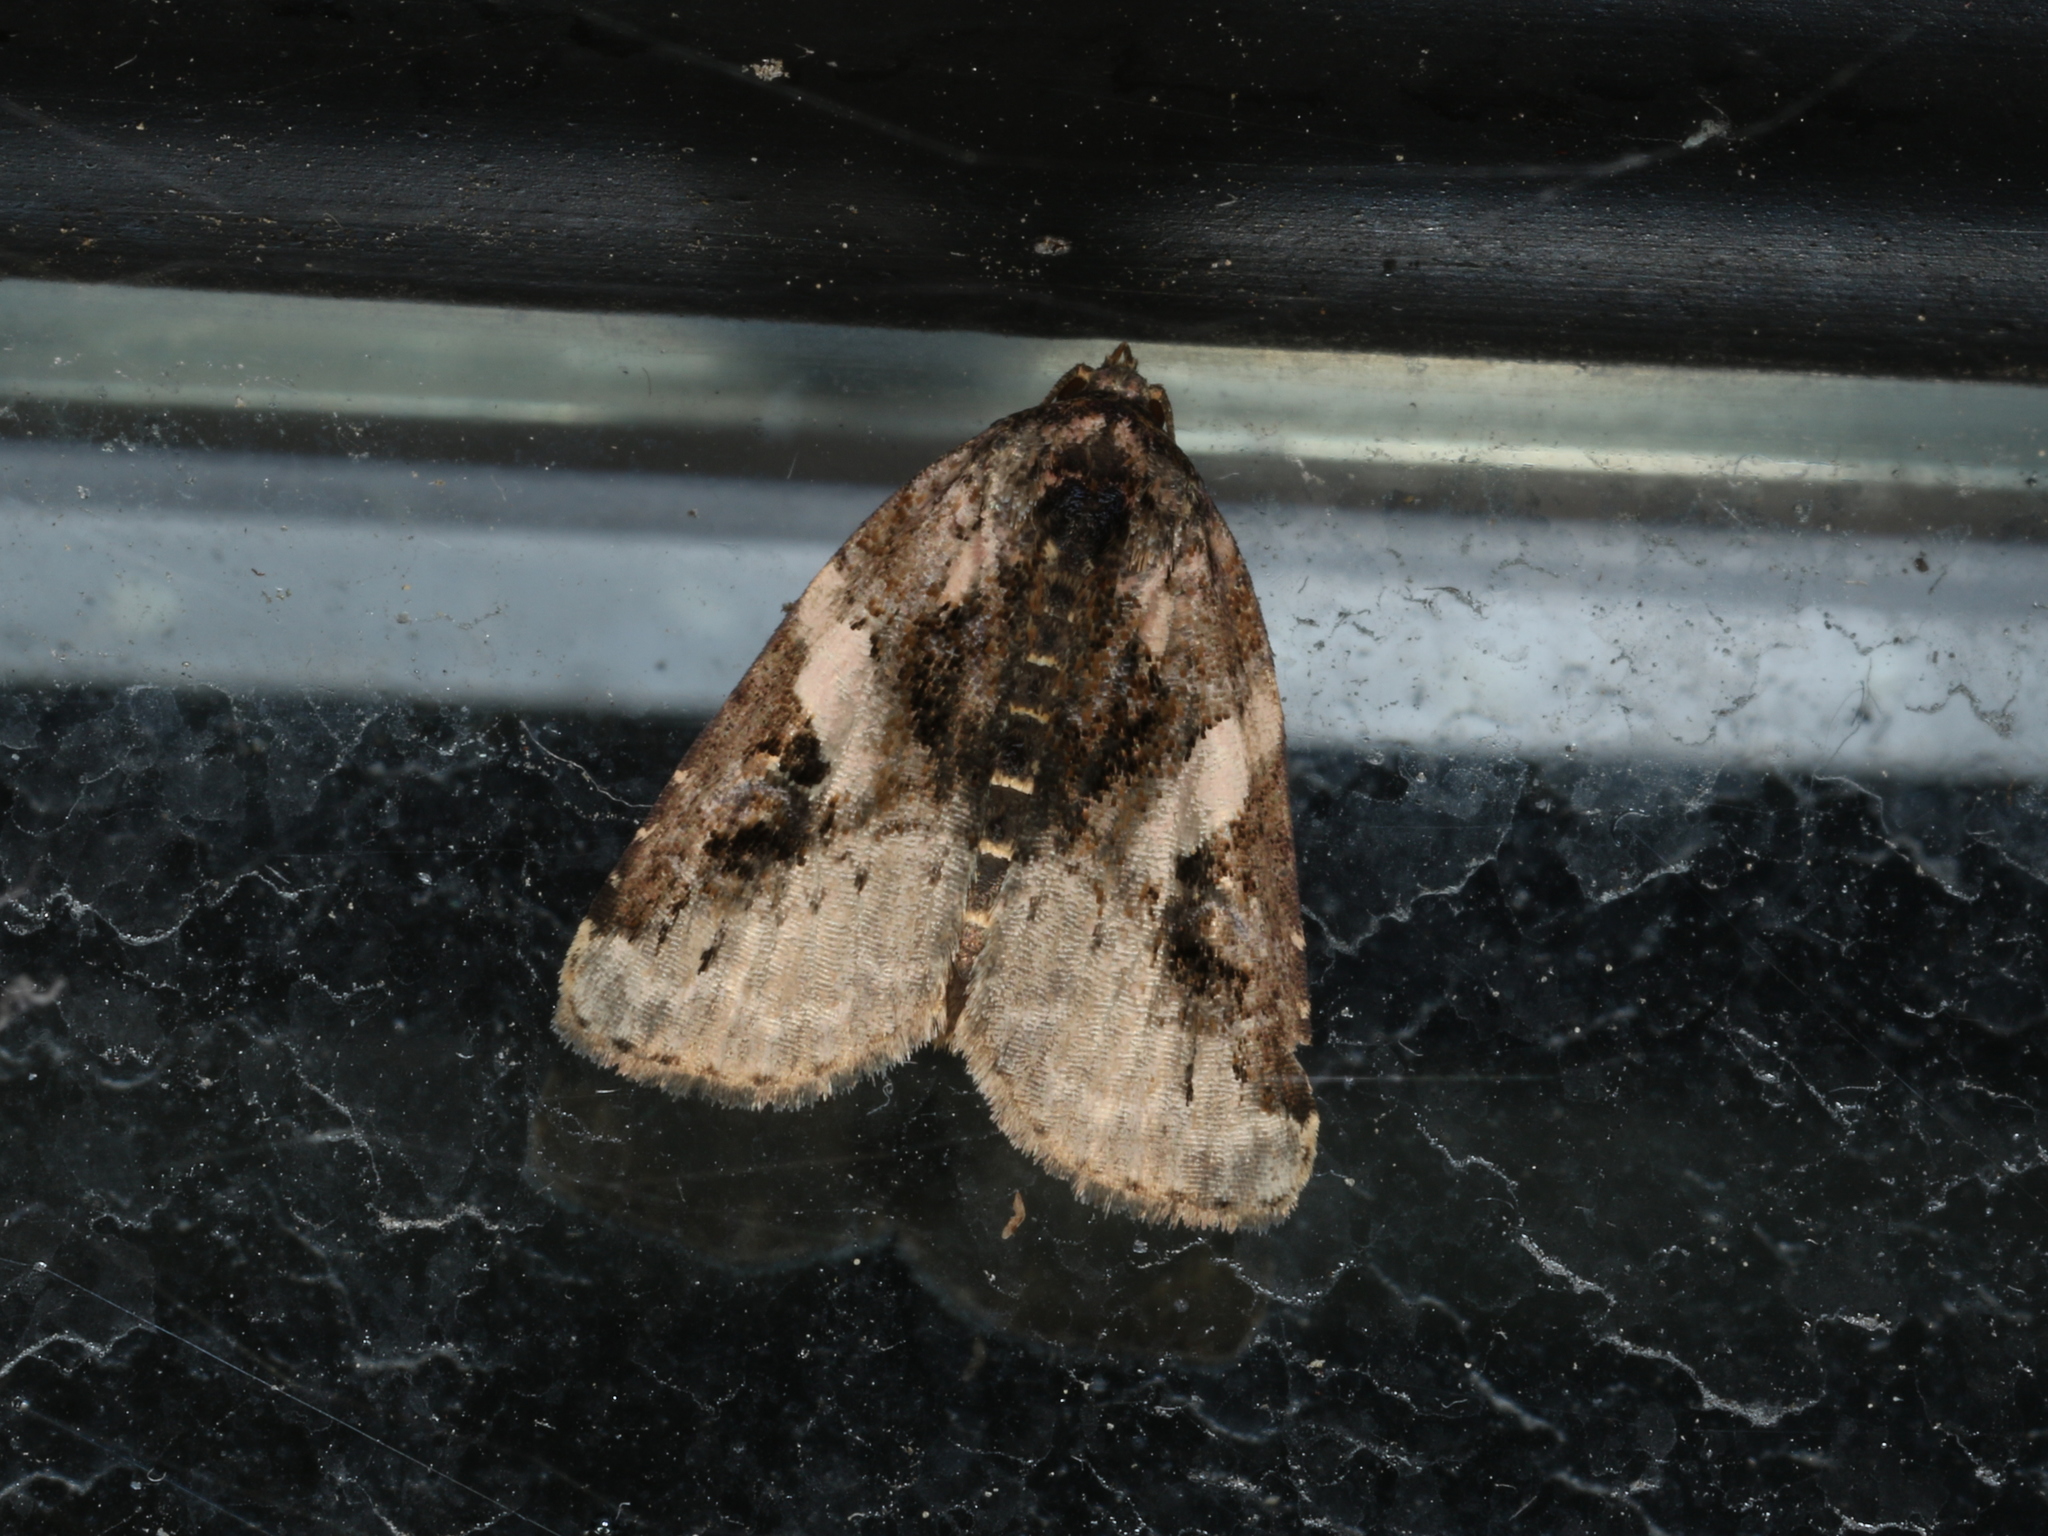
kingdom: Animalia
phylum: Arthropoda
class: Insecta
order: Lepidoptera
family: Noctuidae
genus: Pseudeustrotia
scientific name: Pseudeustrotia carneola
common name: Pink-barred lithacodia moth
